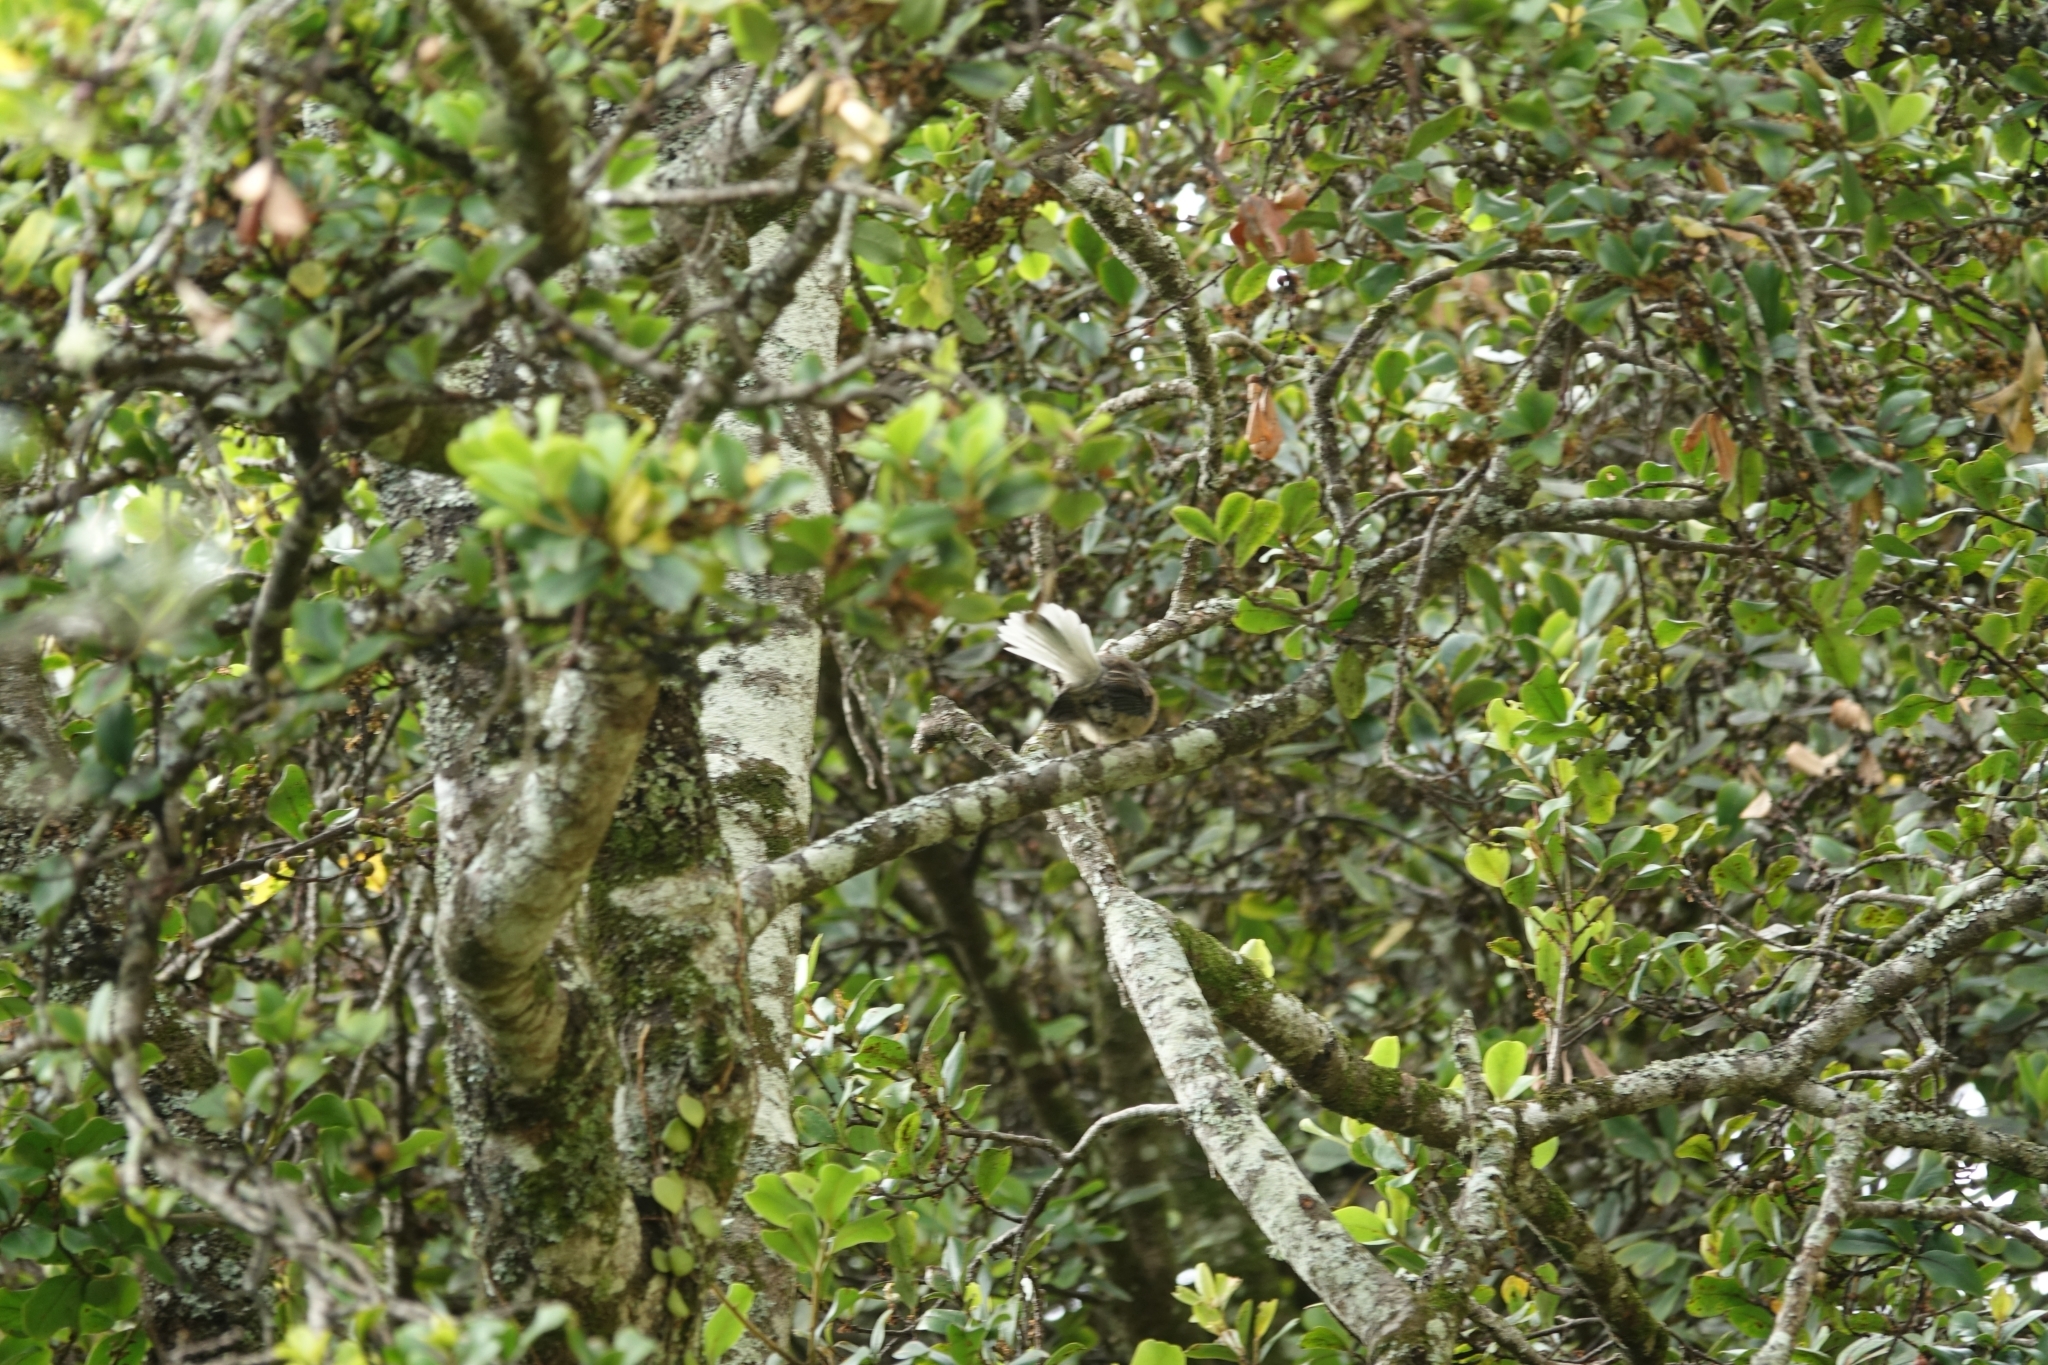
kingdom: Animalia
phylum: Chordata
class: Aves
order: Passeriformes
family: Rhipiduridae
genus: Rhipidura
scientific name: Rhipidura fuliginosa
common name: New zealand fantail
